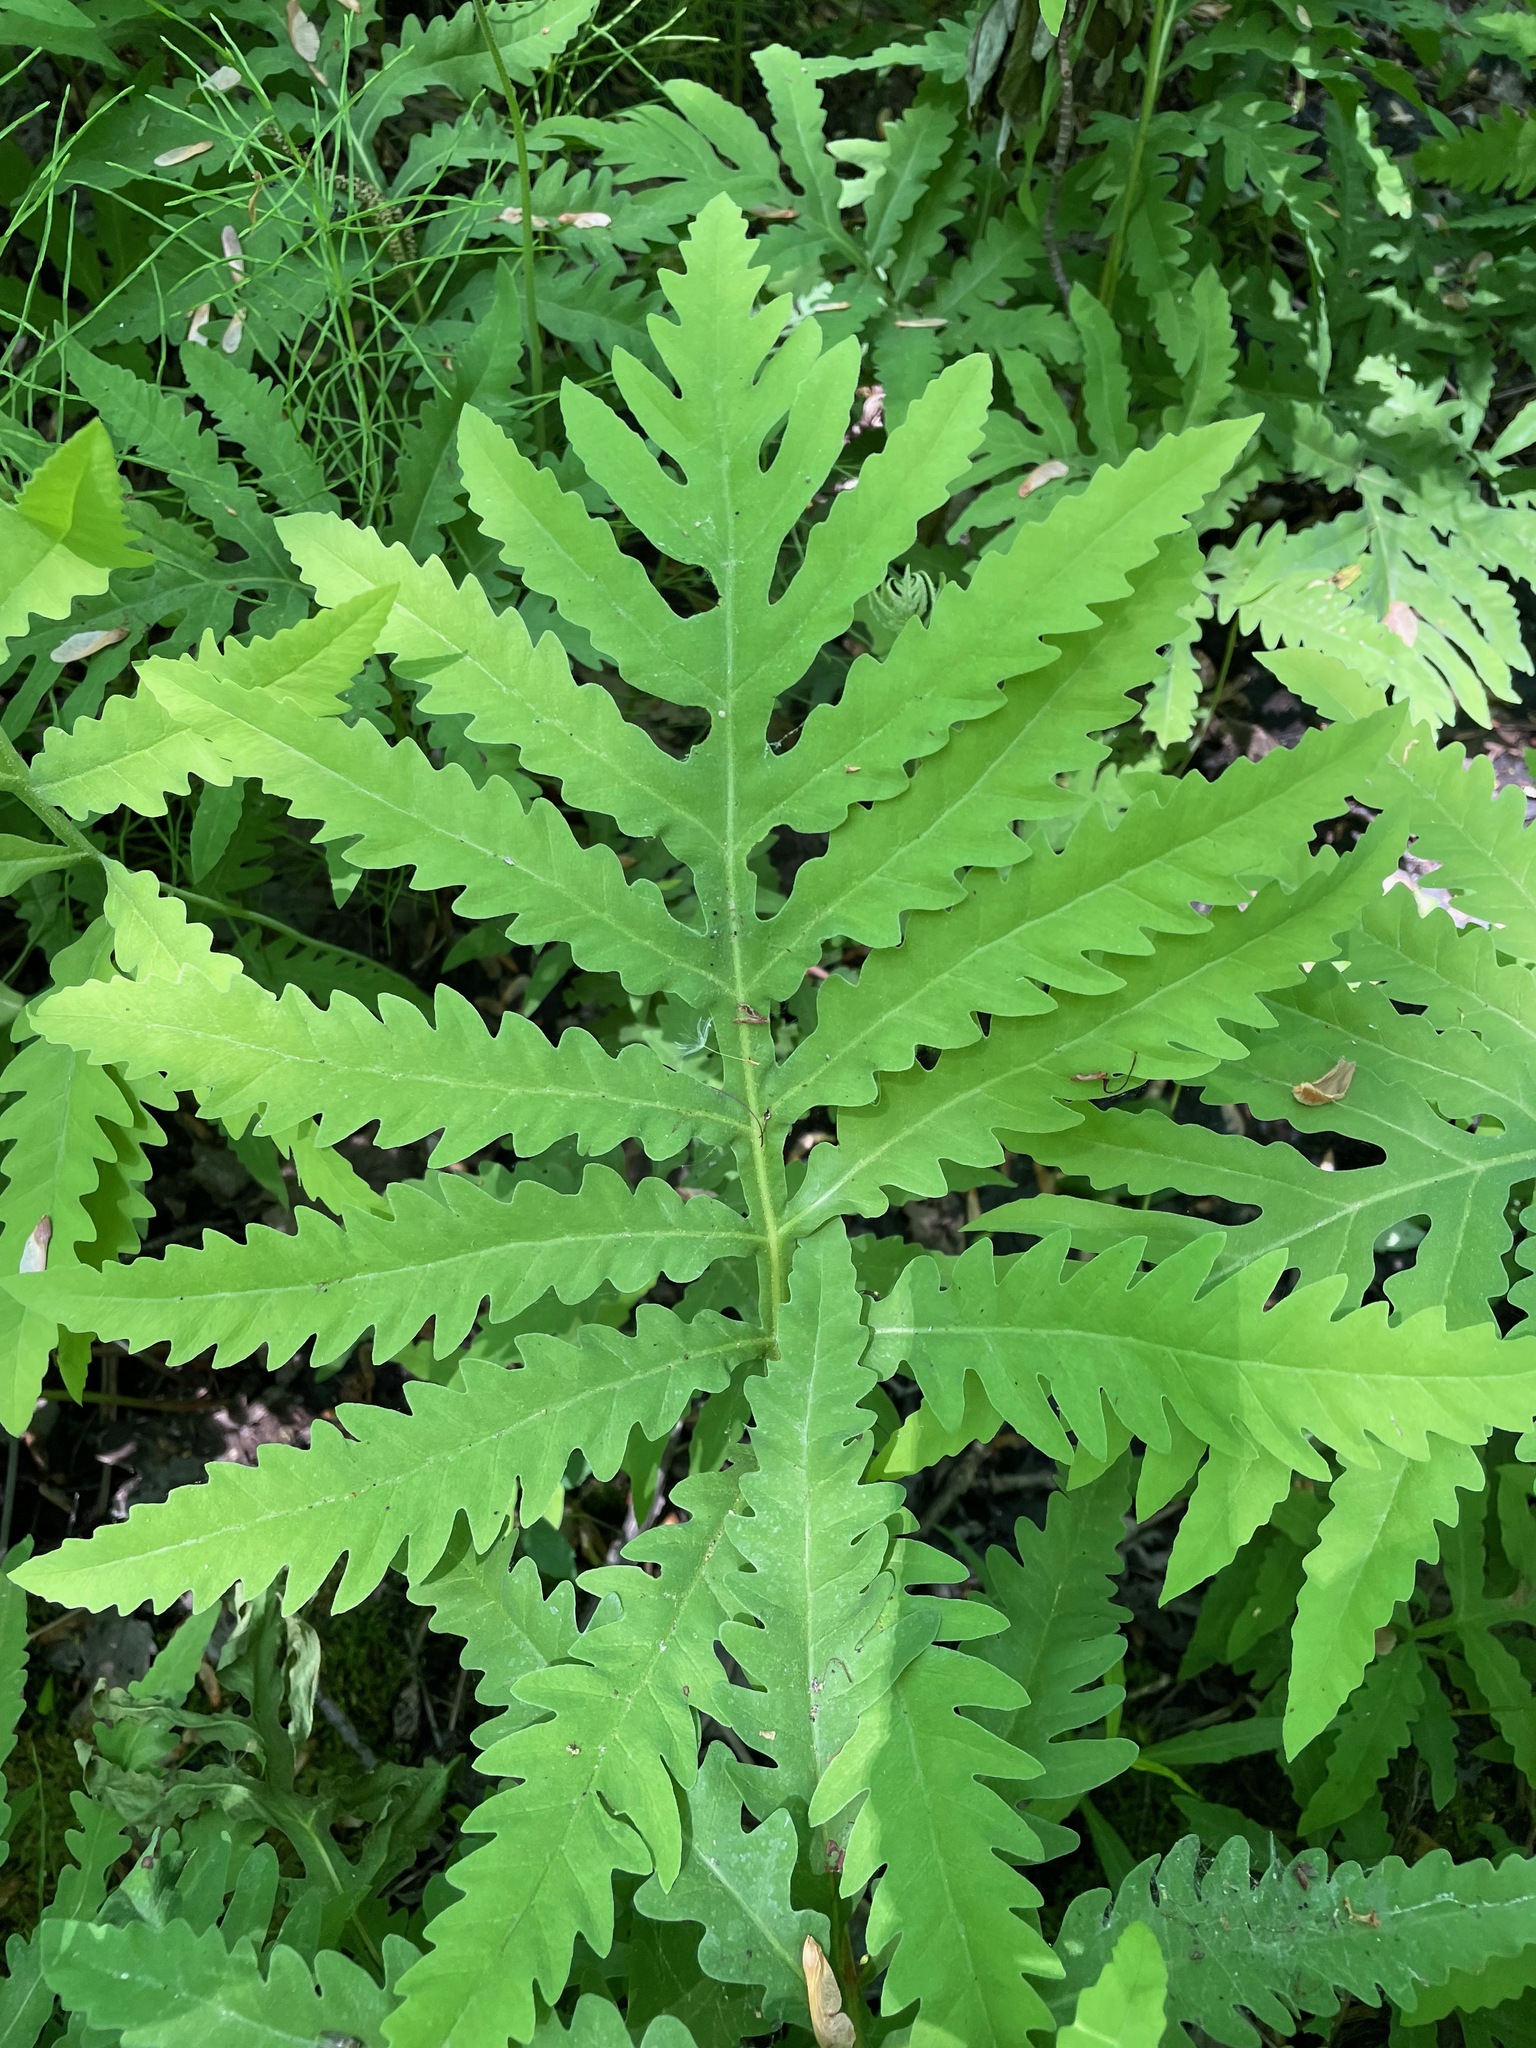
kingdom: Plantae
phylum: Tracheophyta
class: Polypodiopsida
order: Polypodiales
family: Onocleaceae
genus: Onoclea
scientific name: Onoclea sensibilis
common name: Sensitive fern
